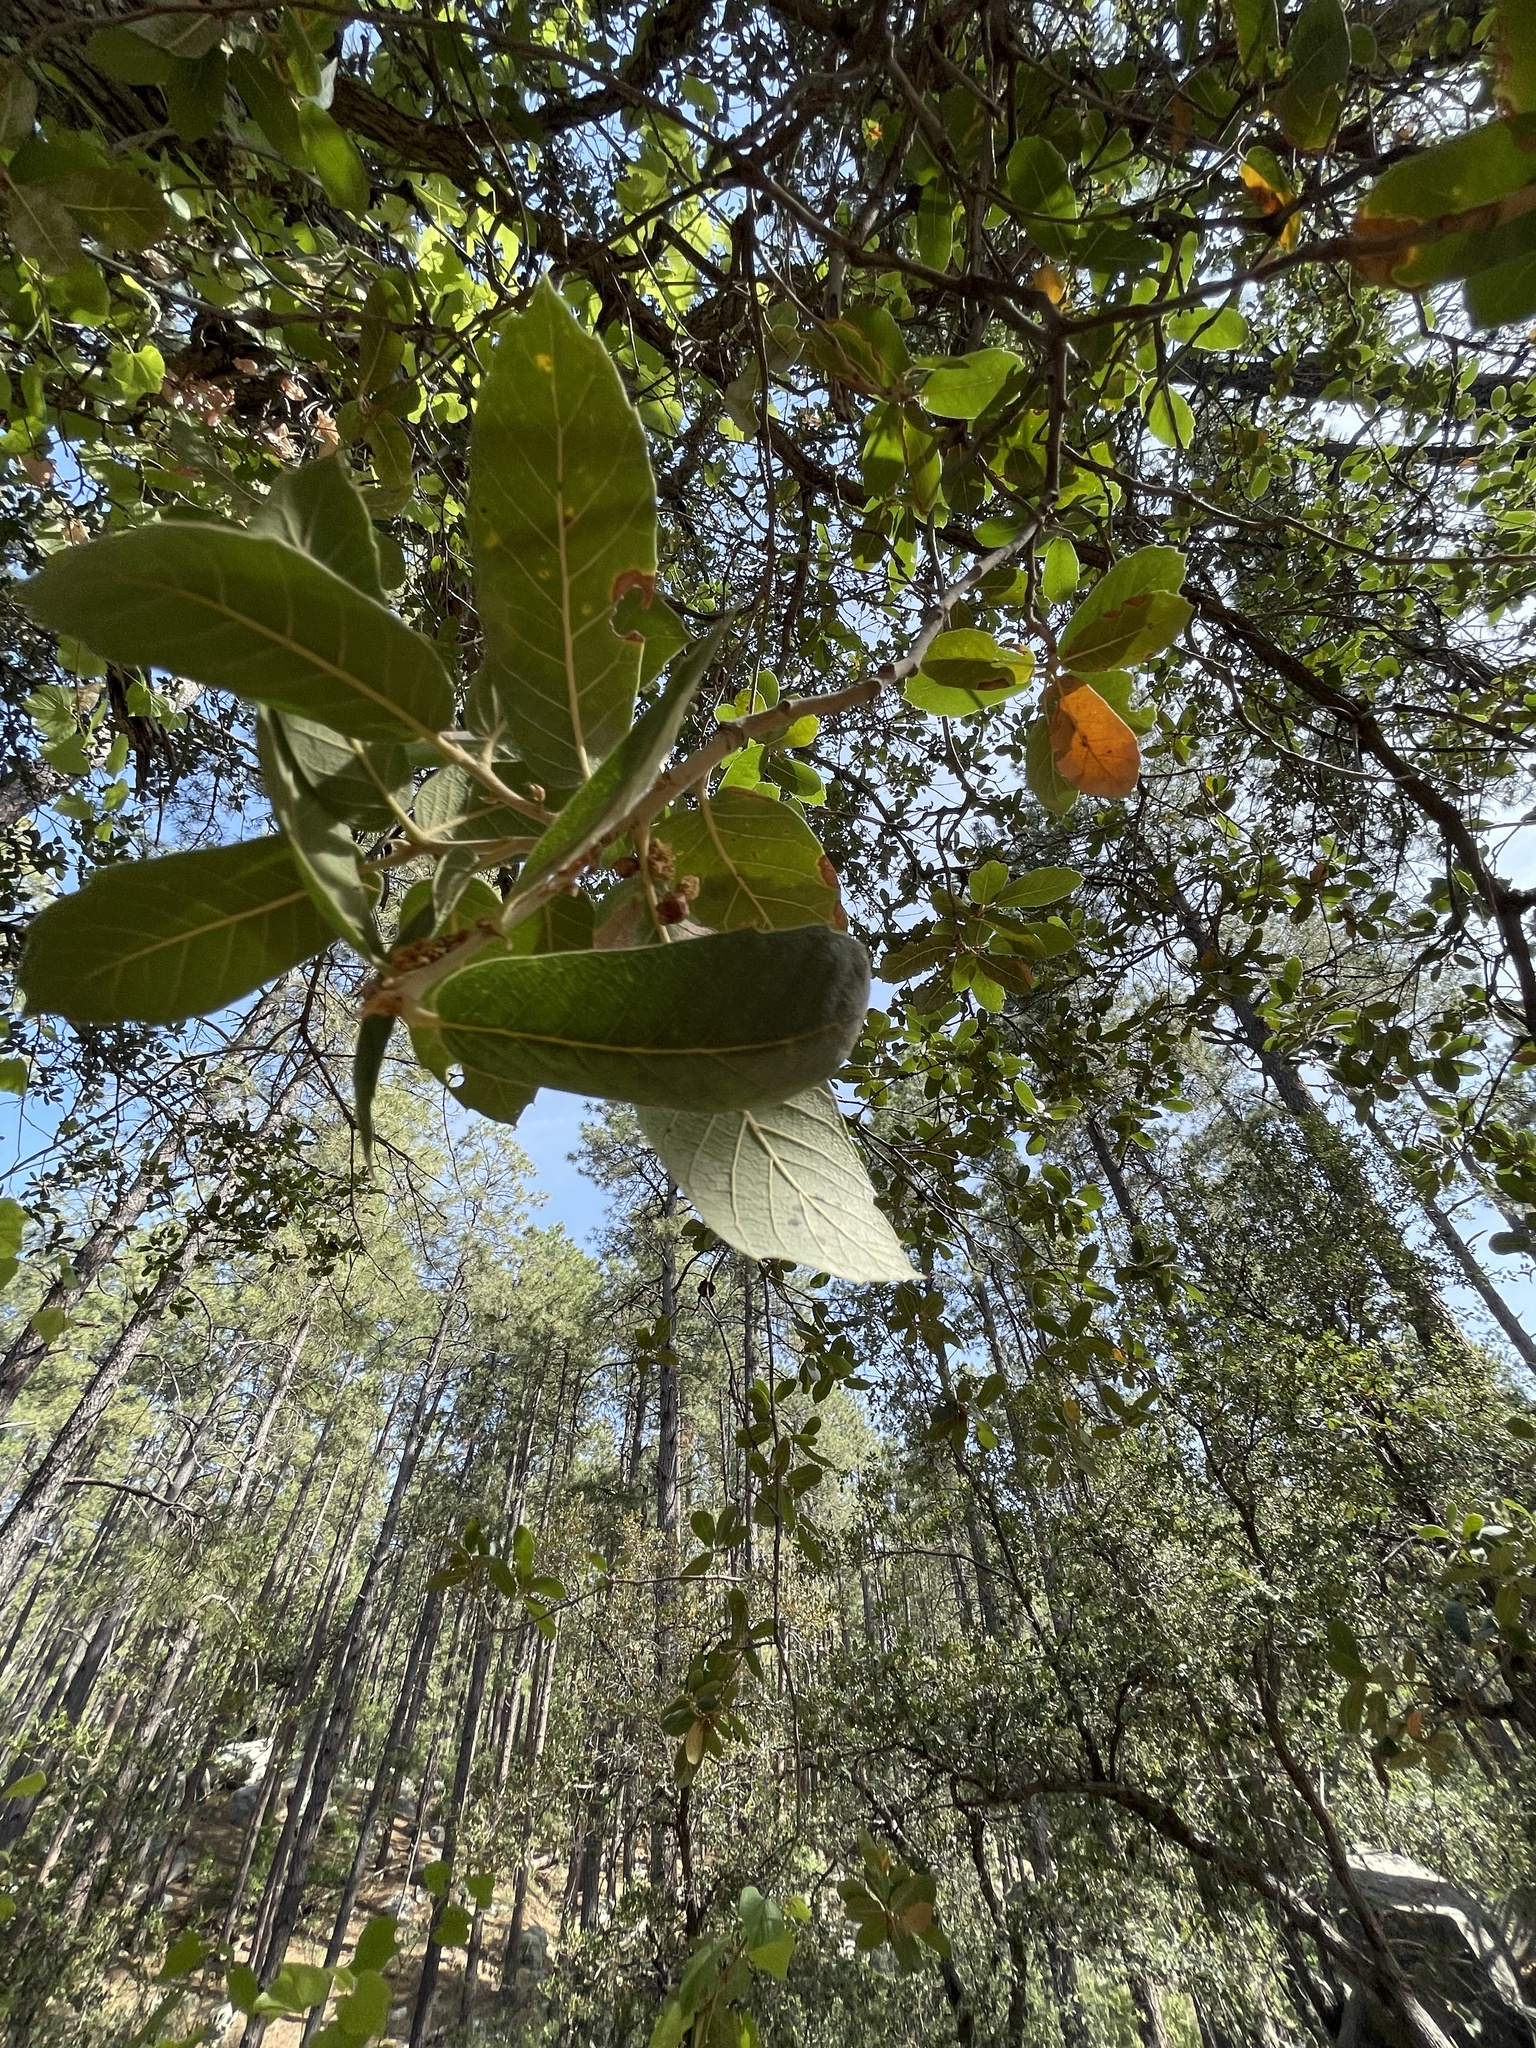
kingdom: Plantae
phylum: Tracheophyta
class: Magnoliopsida
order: Fagales
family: Fagaceae
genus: Quercus
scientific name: Quercus grisea
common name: Gray oak
